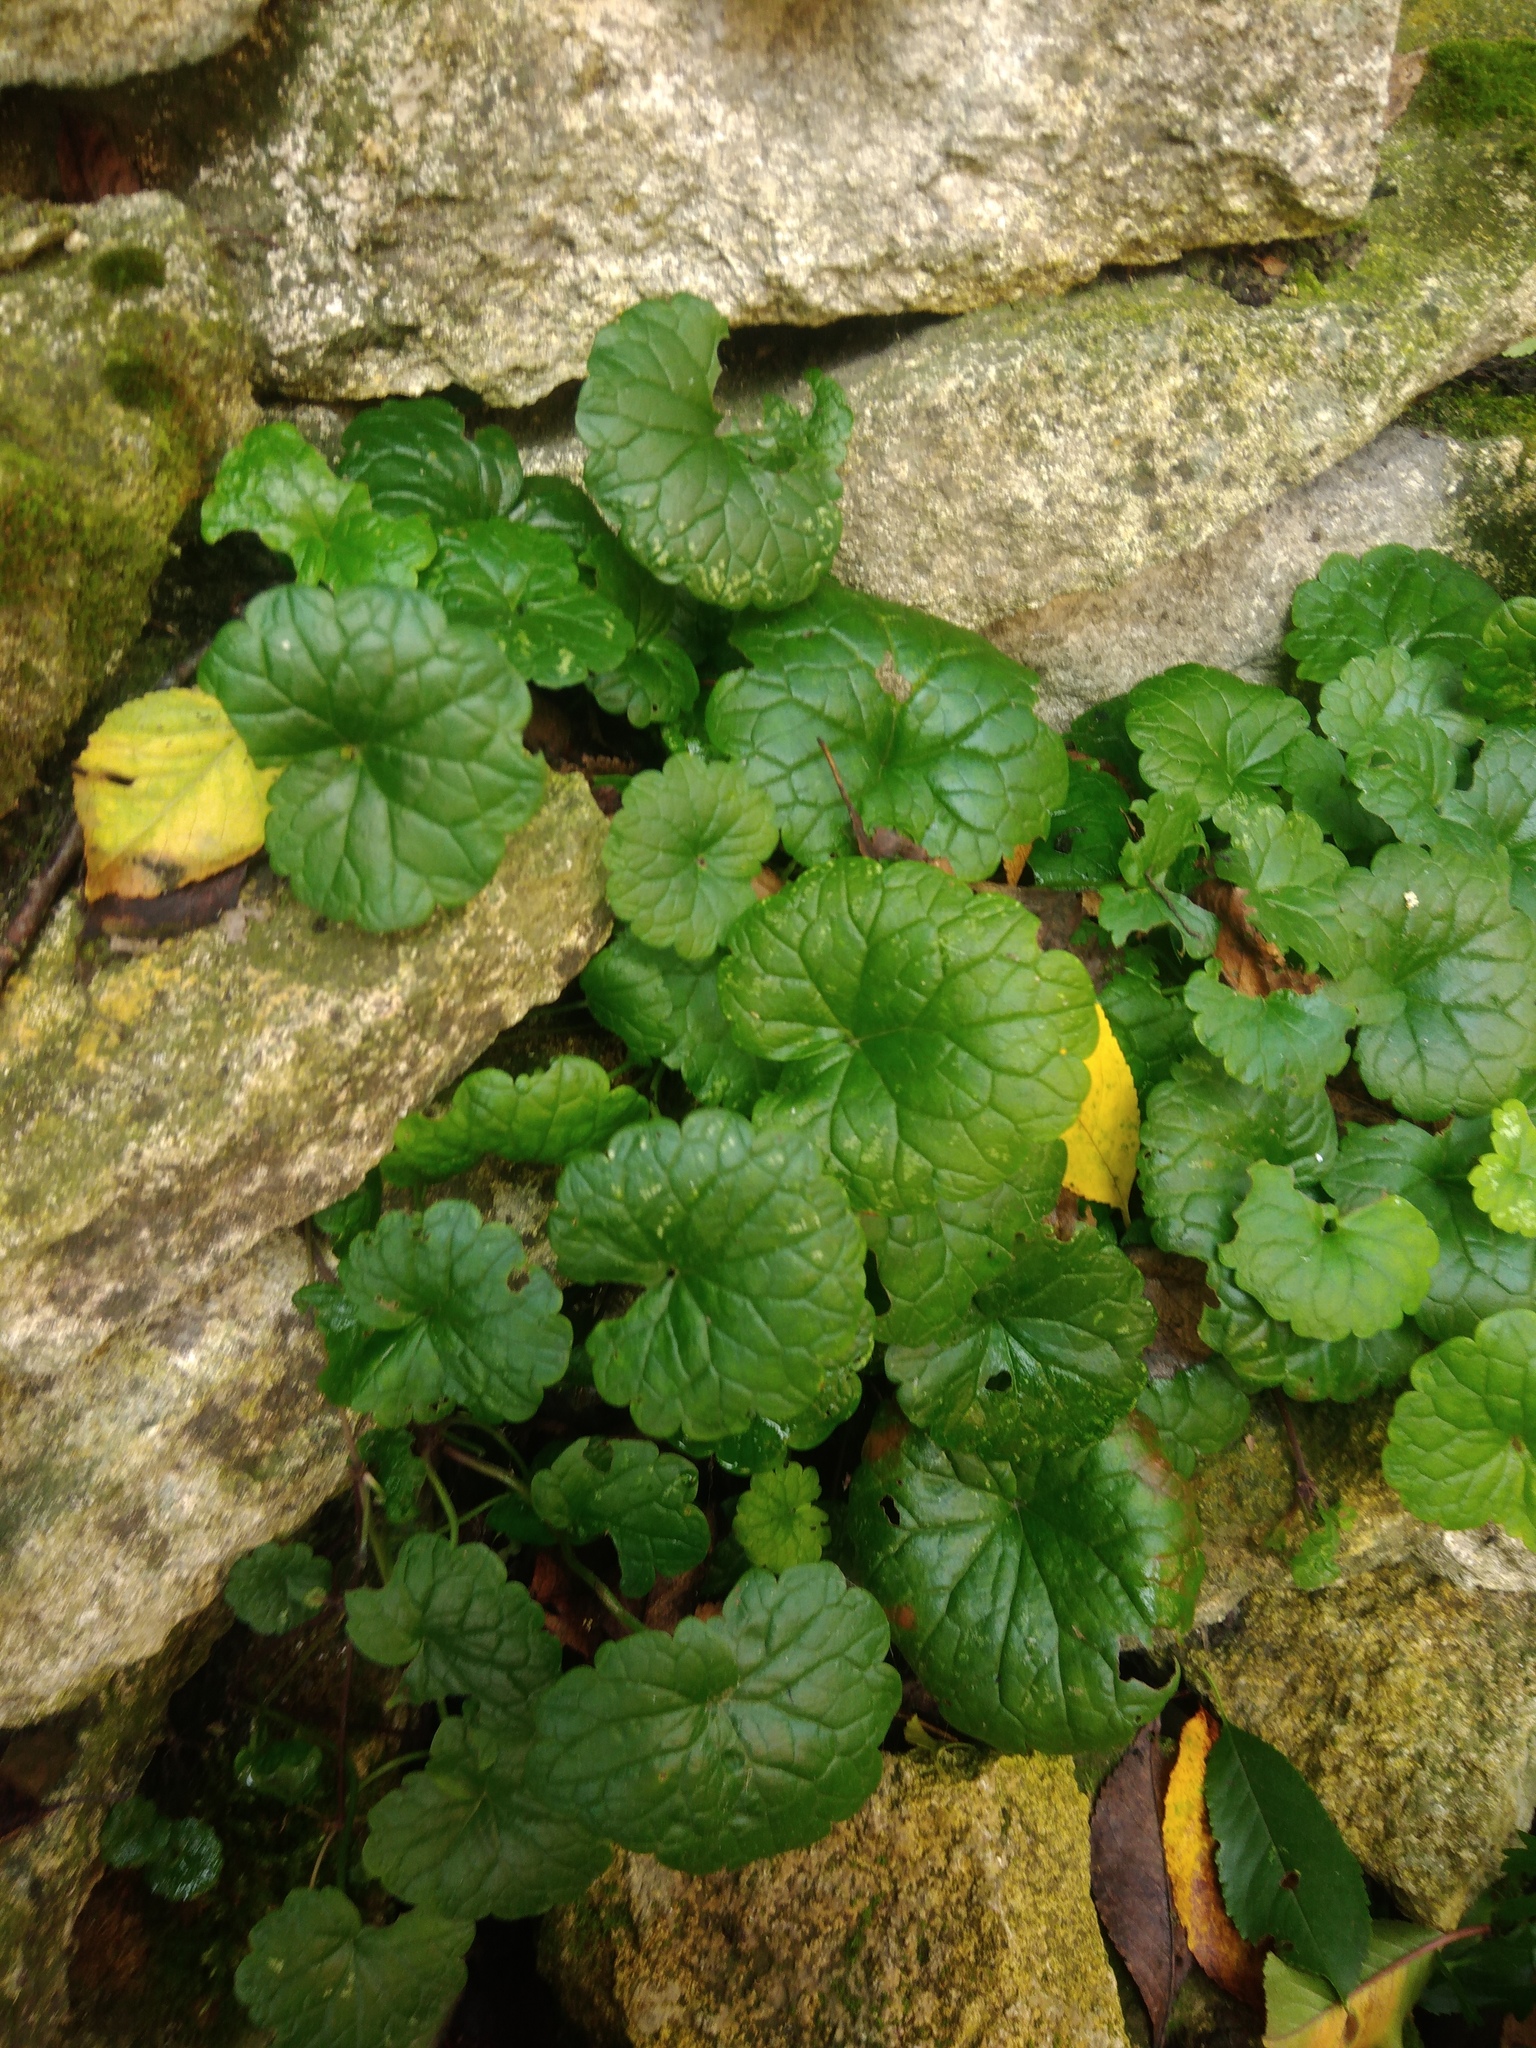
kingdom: Plantae
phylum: Tracheophyta
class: Magnoliopsida
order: Lamiales
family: Lamiaceae
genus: Glechoma
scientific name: Glechoma hederacea
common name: Ground ivy
